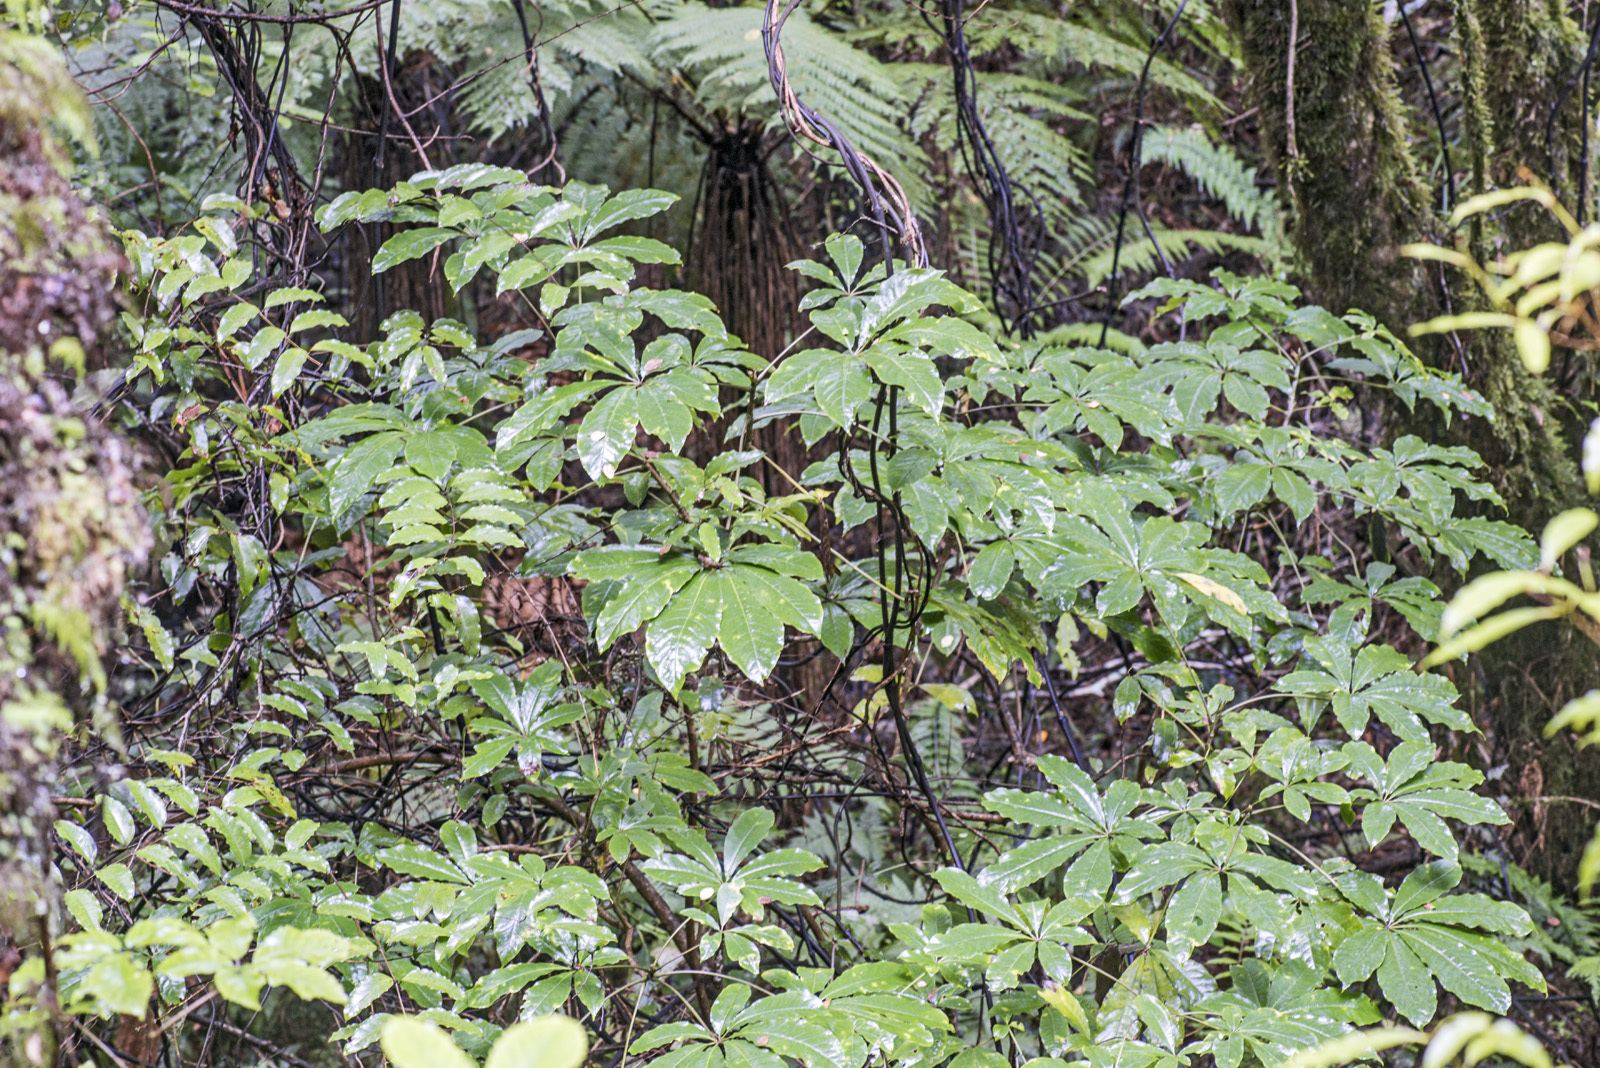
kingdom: Plantae
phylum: Tracheophyta
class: Magnoliopsida
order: Apiales
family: Araliaceae
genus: Schefflera
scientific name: Schefflera digitata
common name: Pate
